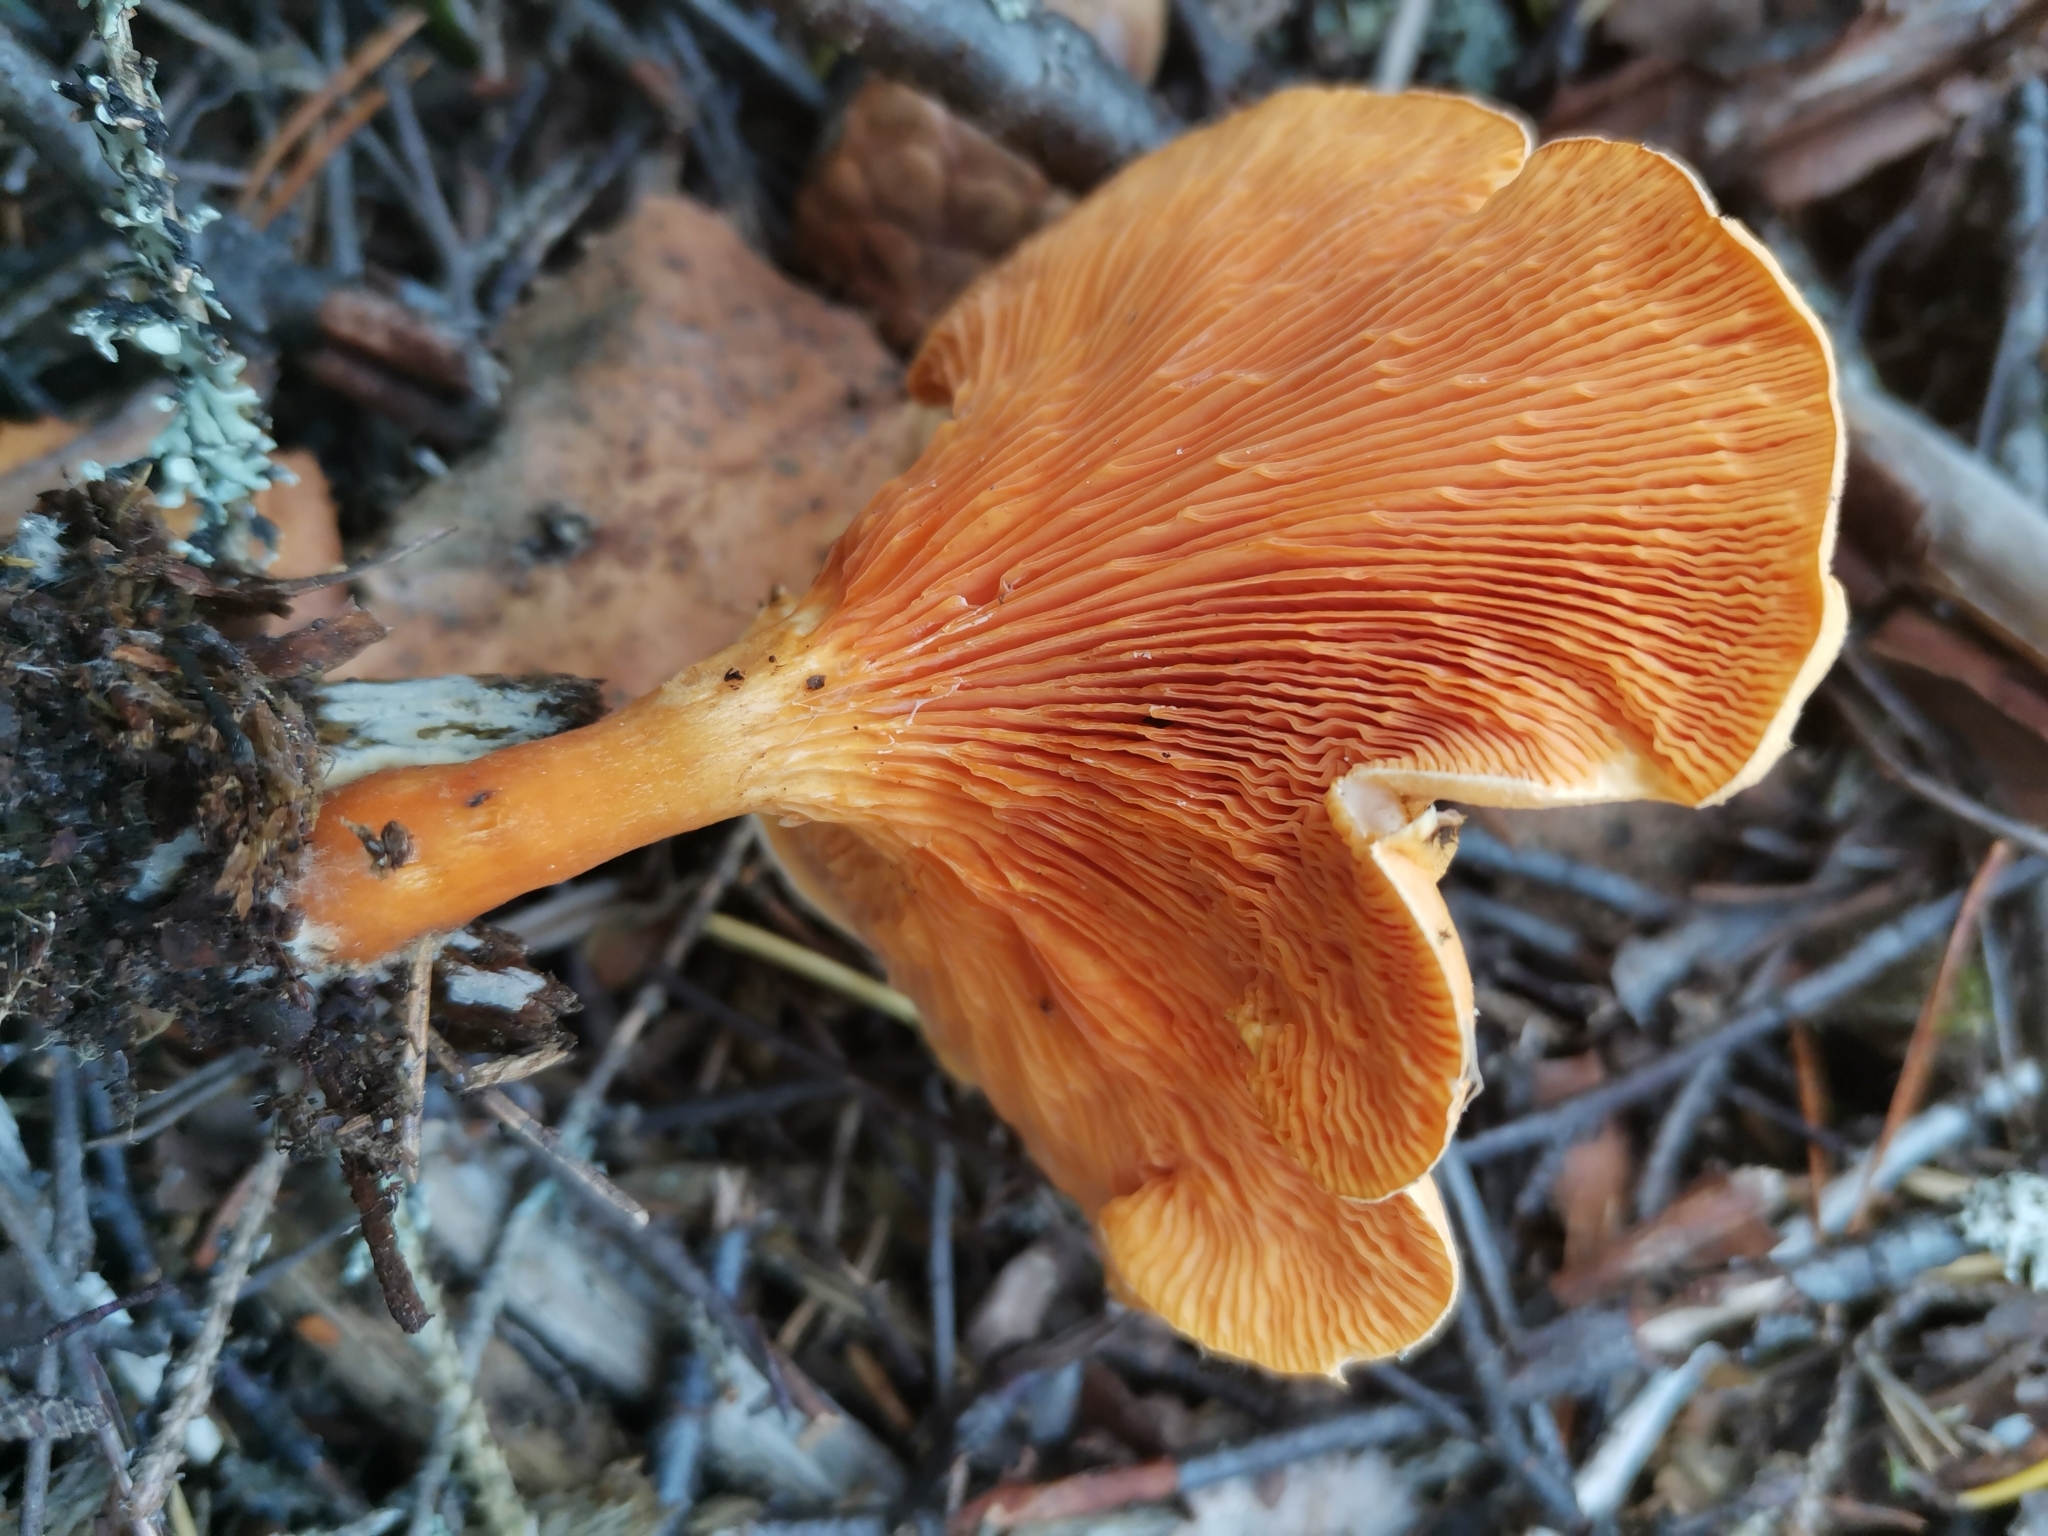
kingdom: Fungi
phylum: Basidiomycota
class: Agaricomycetes
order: Boletales
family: Hygrophoropsidaceae
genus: Hygrophoropsis
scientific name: Hygrophoropsis aurantiaca
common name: False chanterelle
